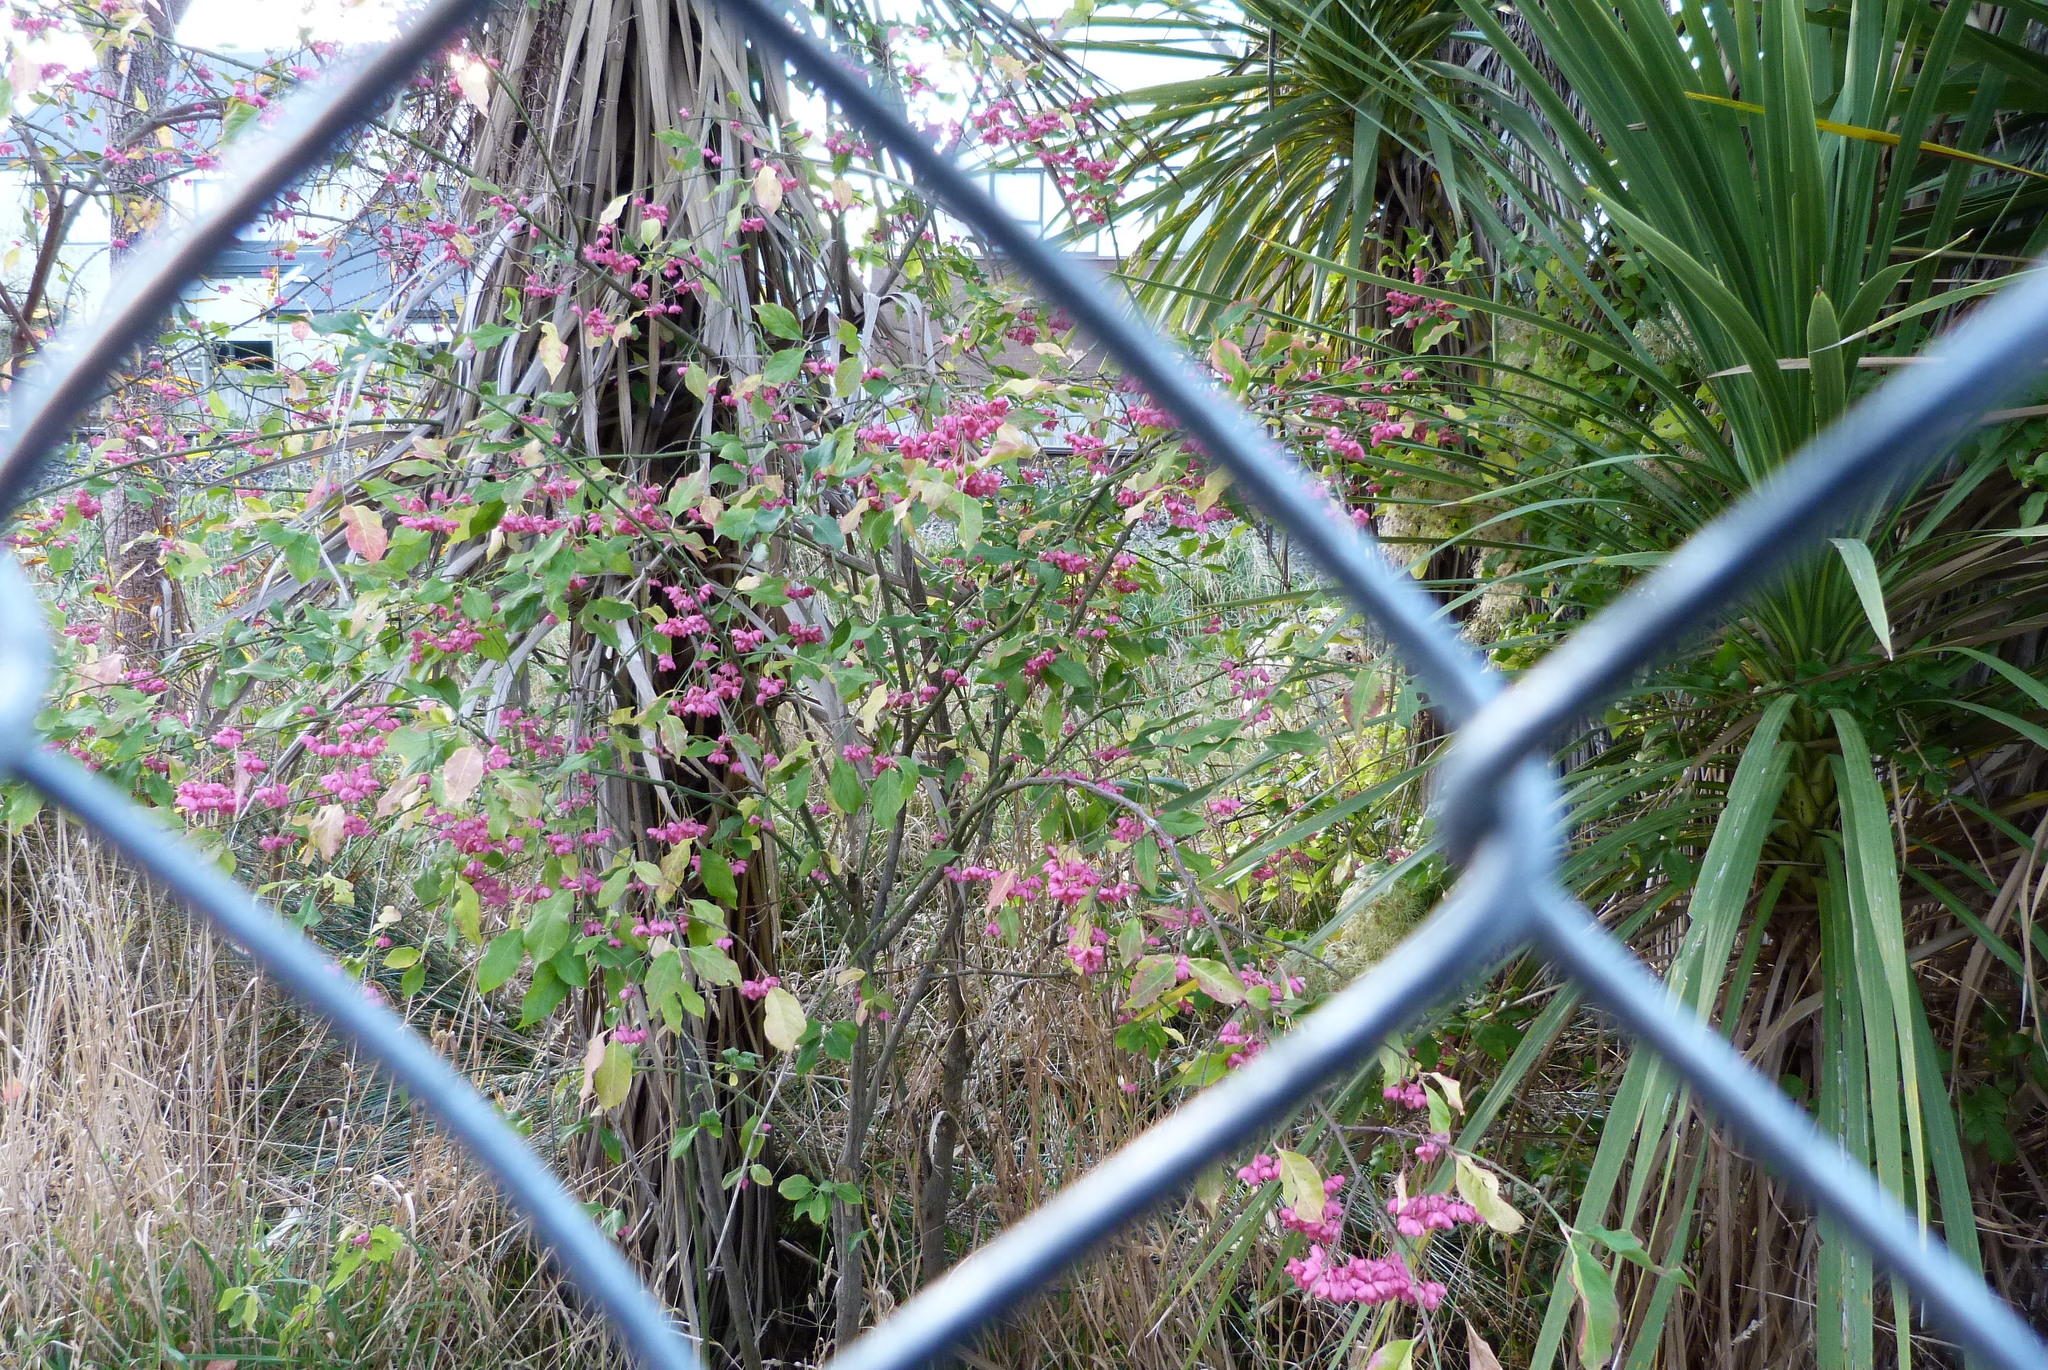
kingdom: Plantae
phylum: Tracheophyta
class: Magnoliopsida
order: Celastrales
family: Celastraceae
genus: Euonymus
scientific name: Euonymus europaeus
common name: Spindle
